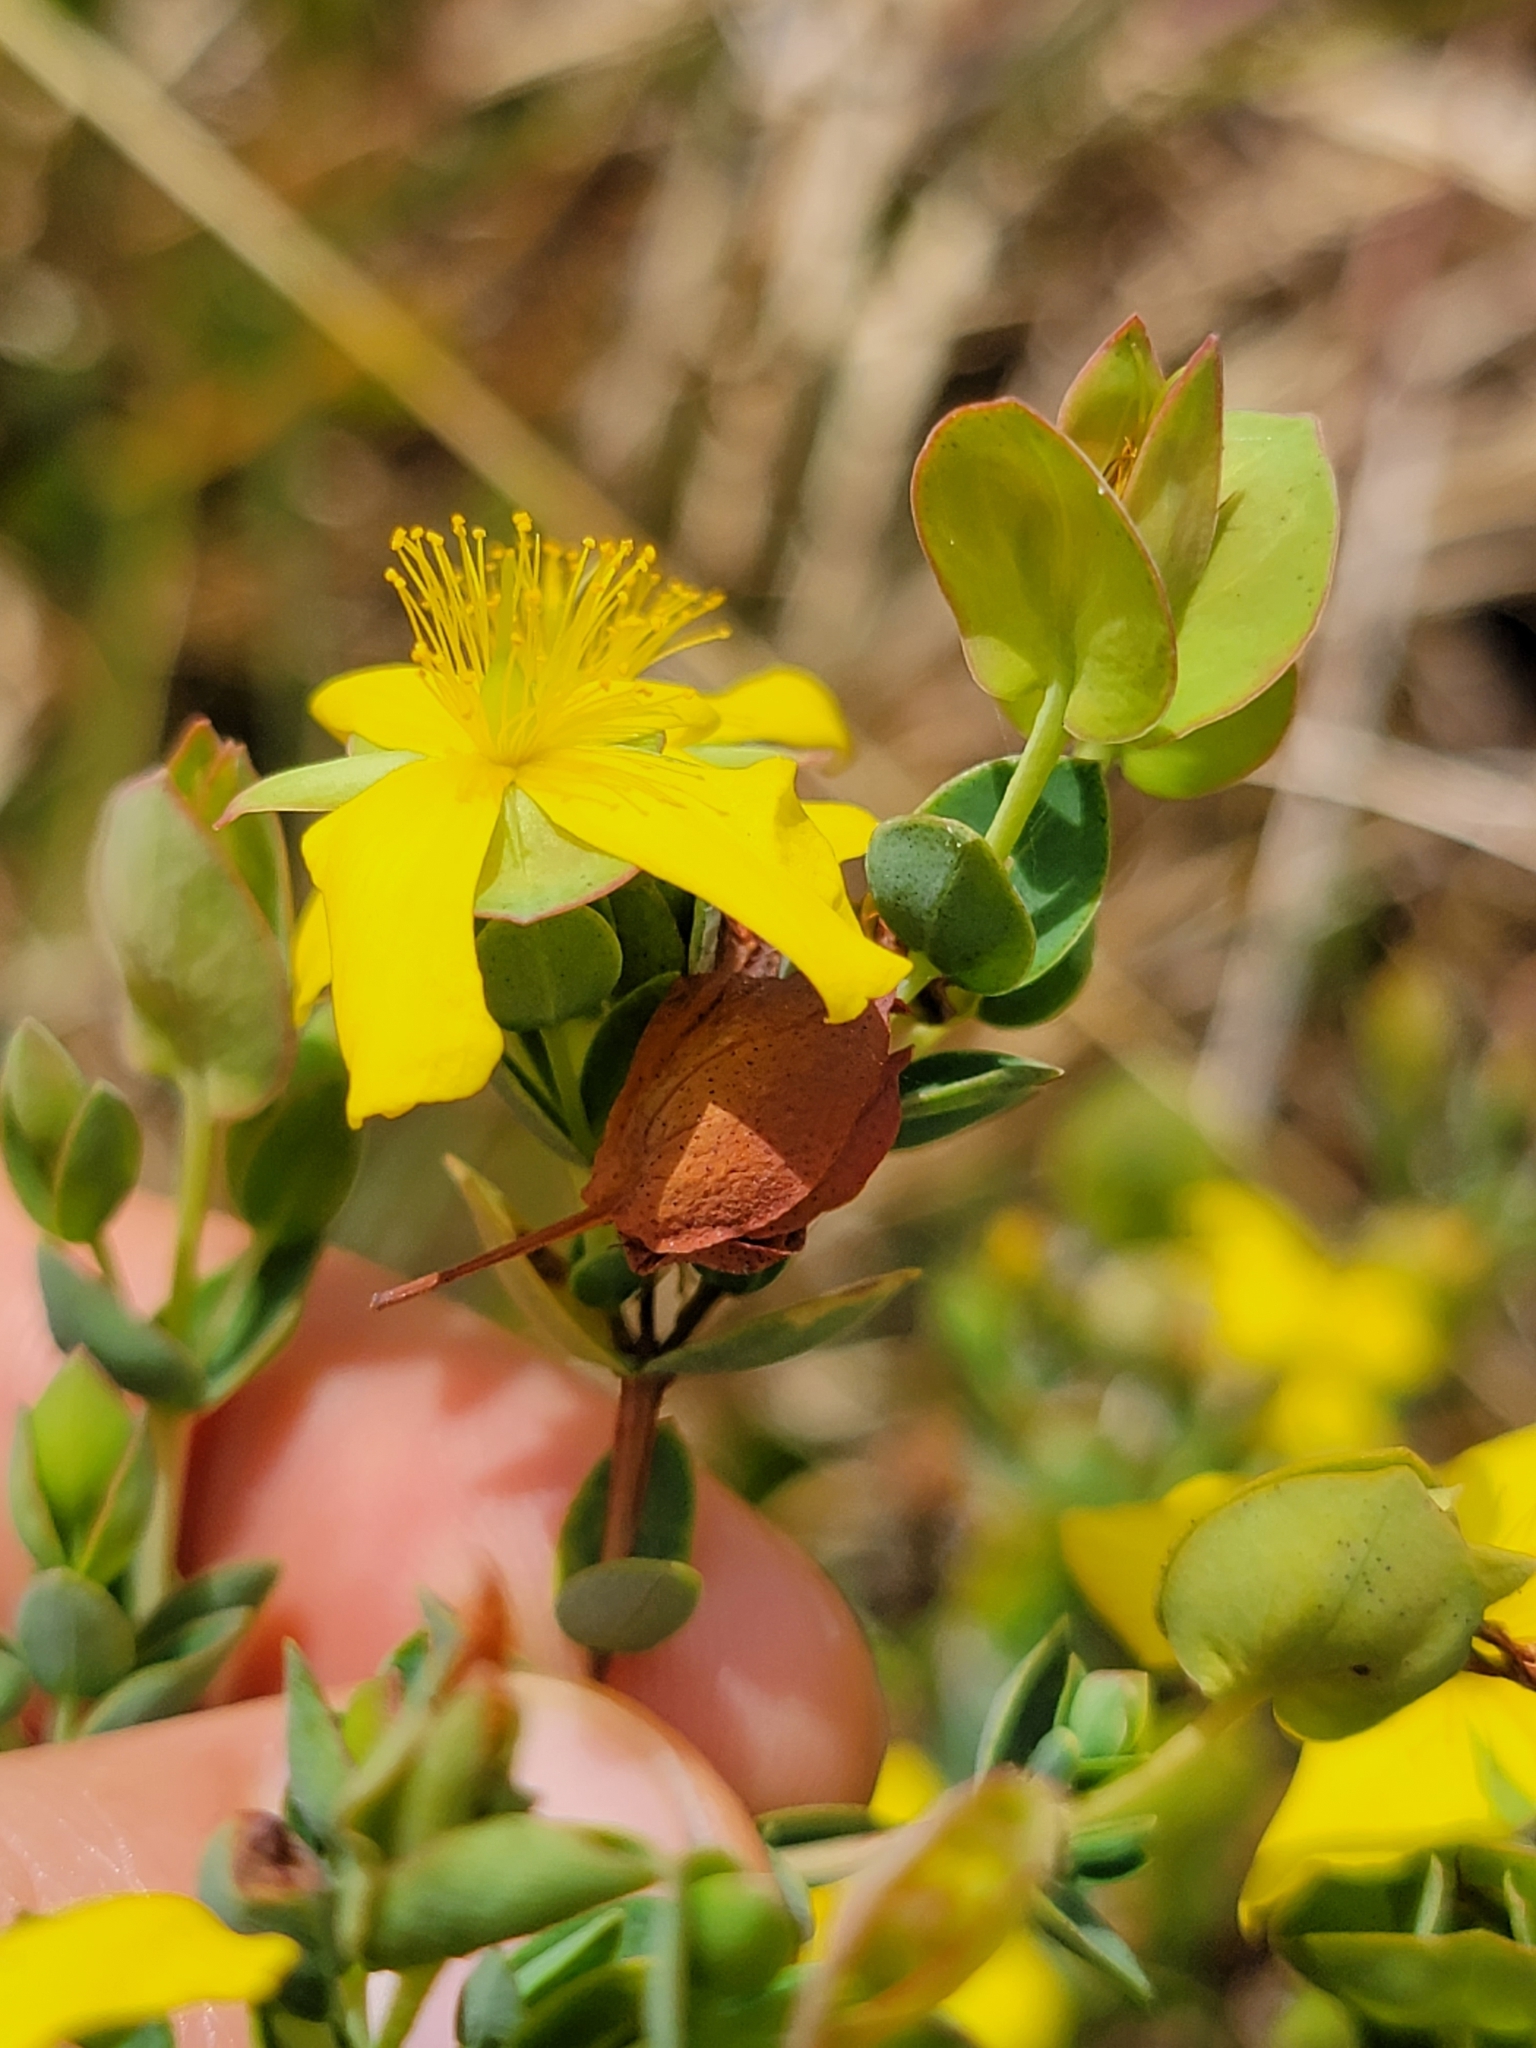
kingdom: Plantae
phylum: Tracheophyta
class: Magnoliopsida
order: Malpighiales
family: Hypericaceae
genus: Hypericum
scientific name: Hypericum tetrapetalum
